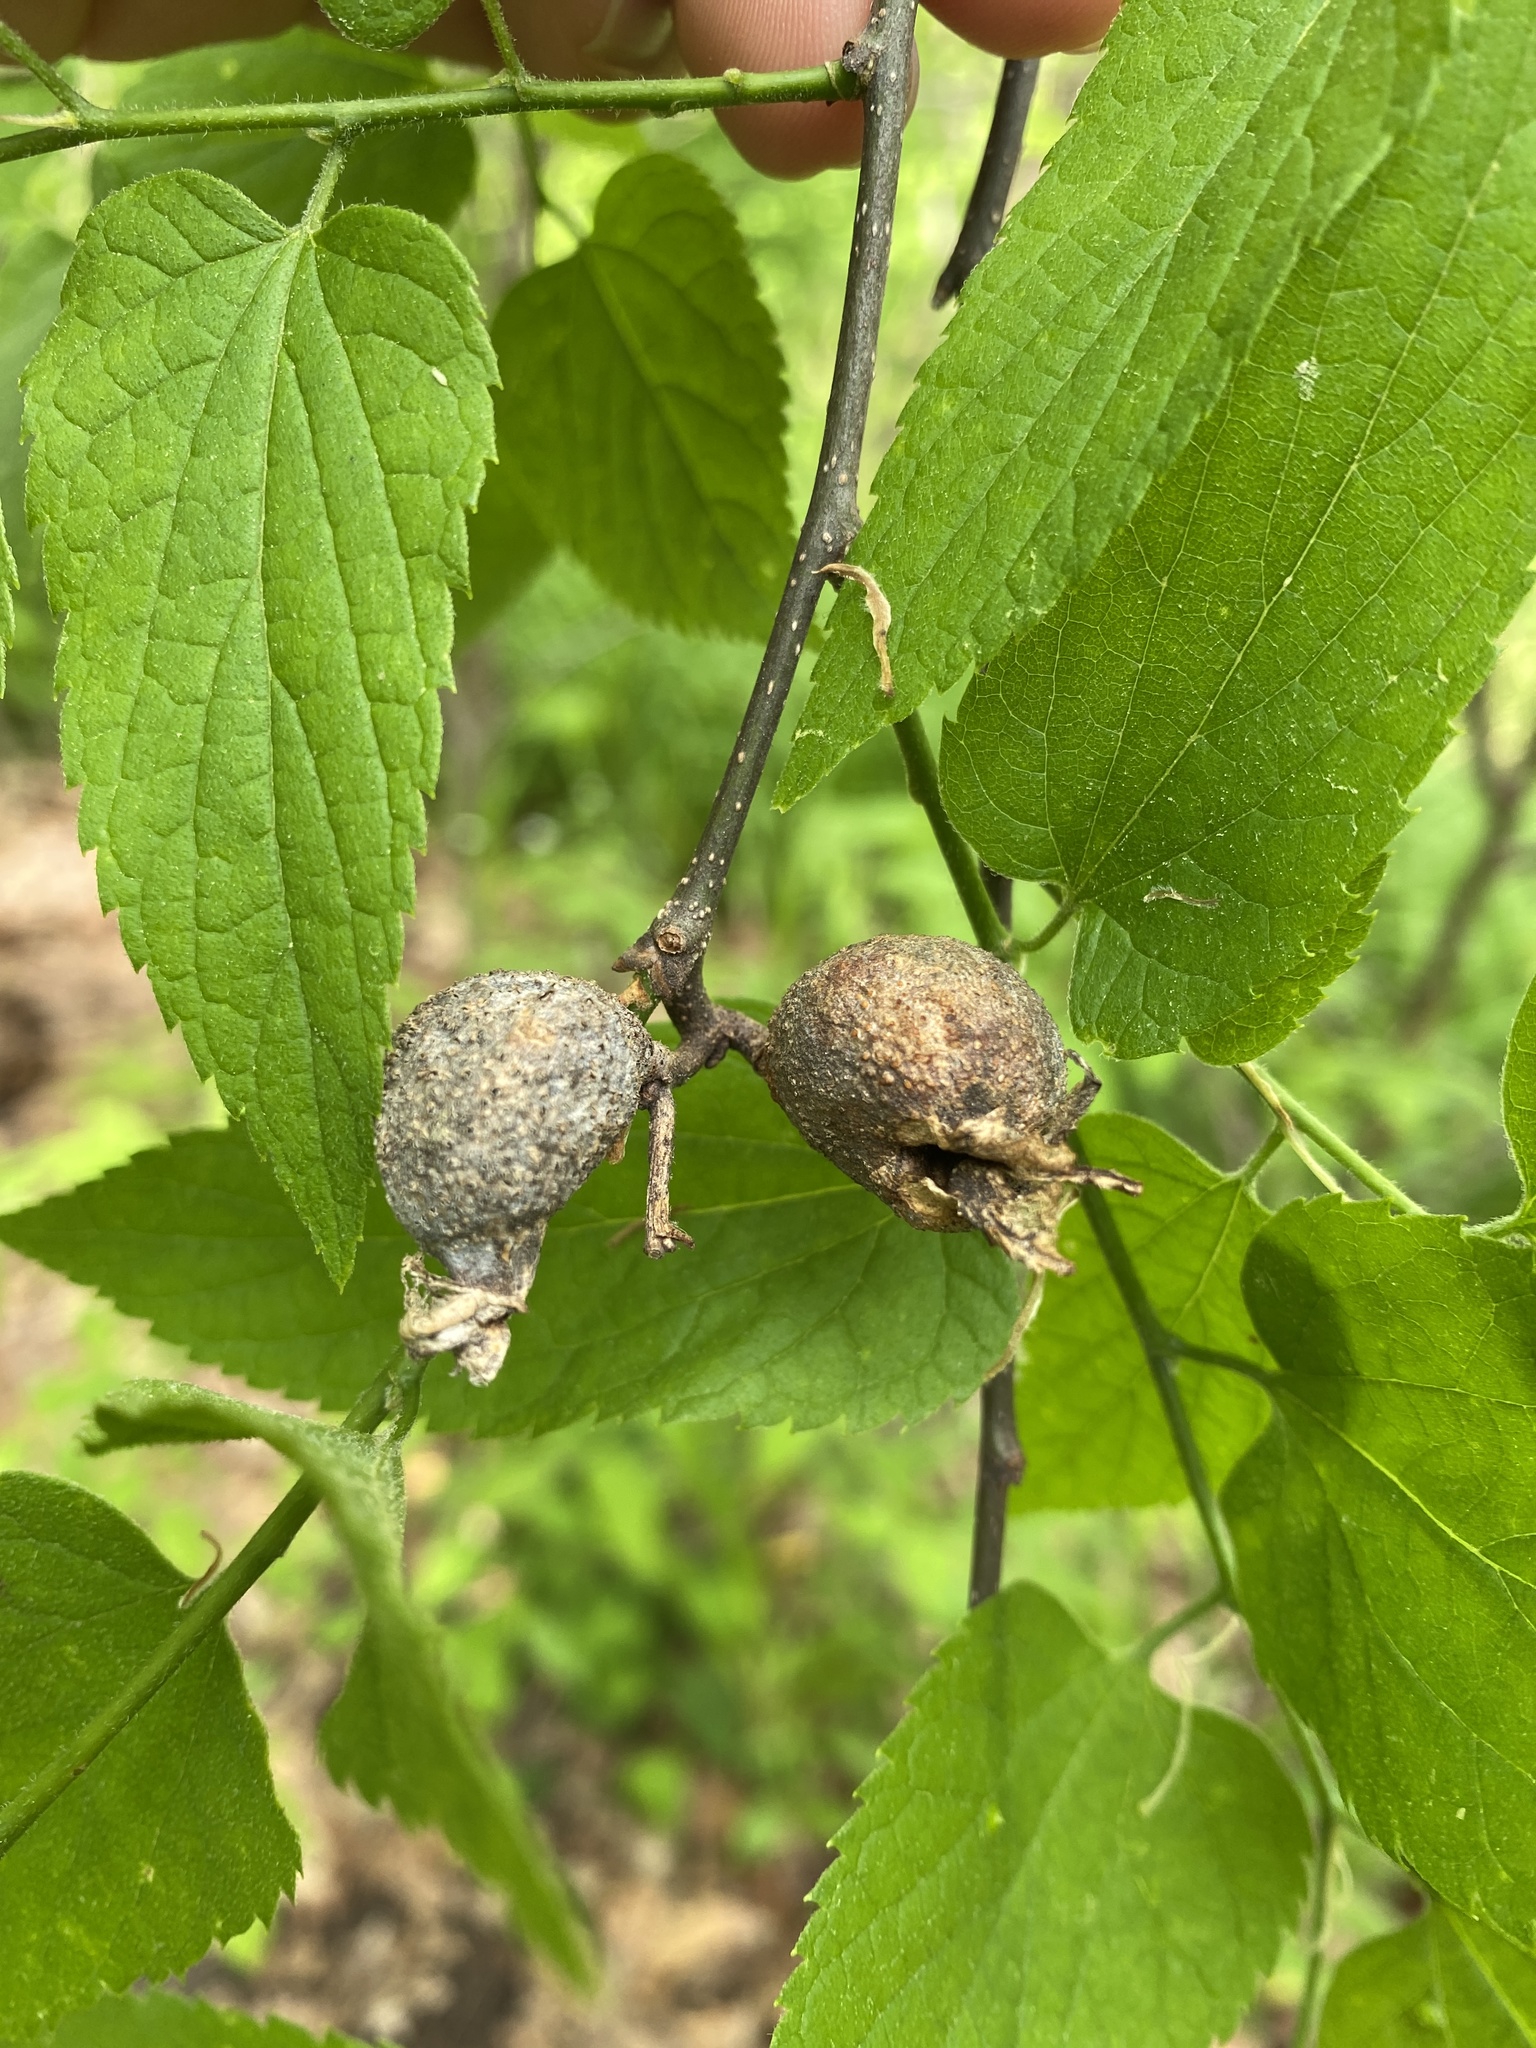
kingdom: Animalia
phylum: Arthropoda
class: Insecta
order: Hemiptera
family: Aphalaridae
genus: Pachypsylla
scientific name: Pachypsylla venusta
